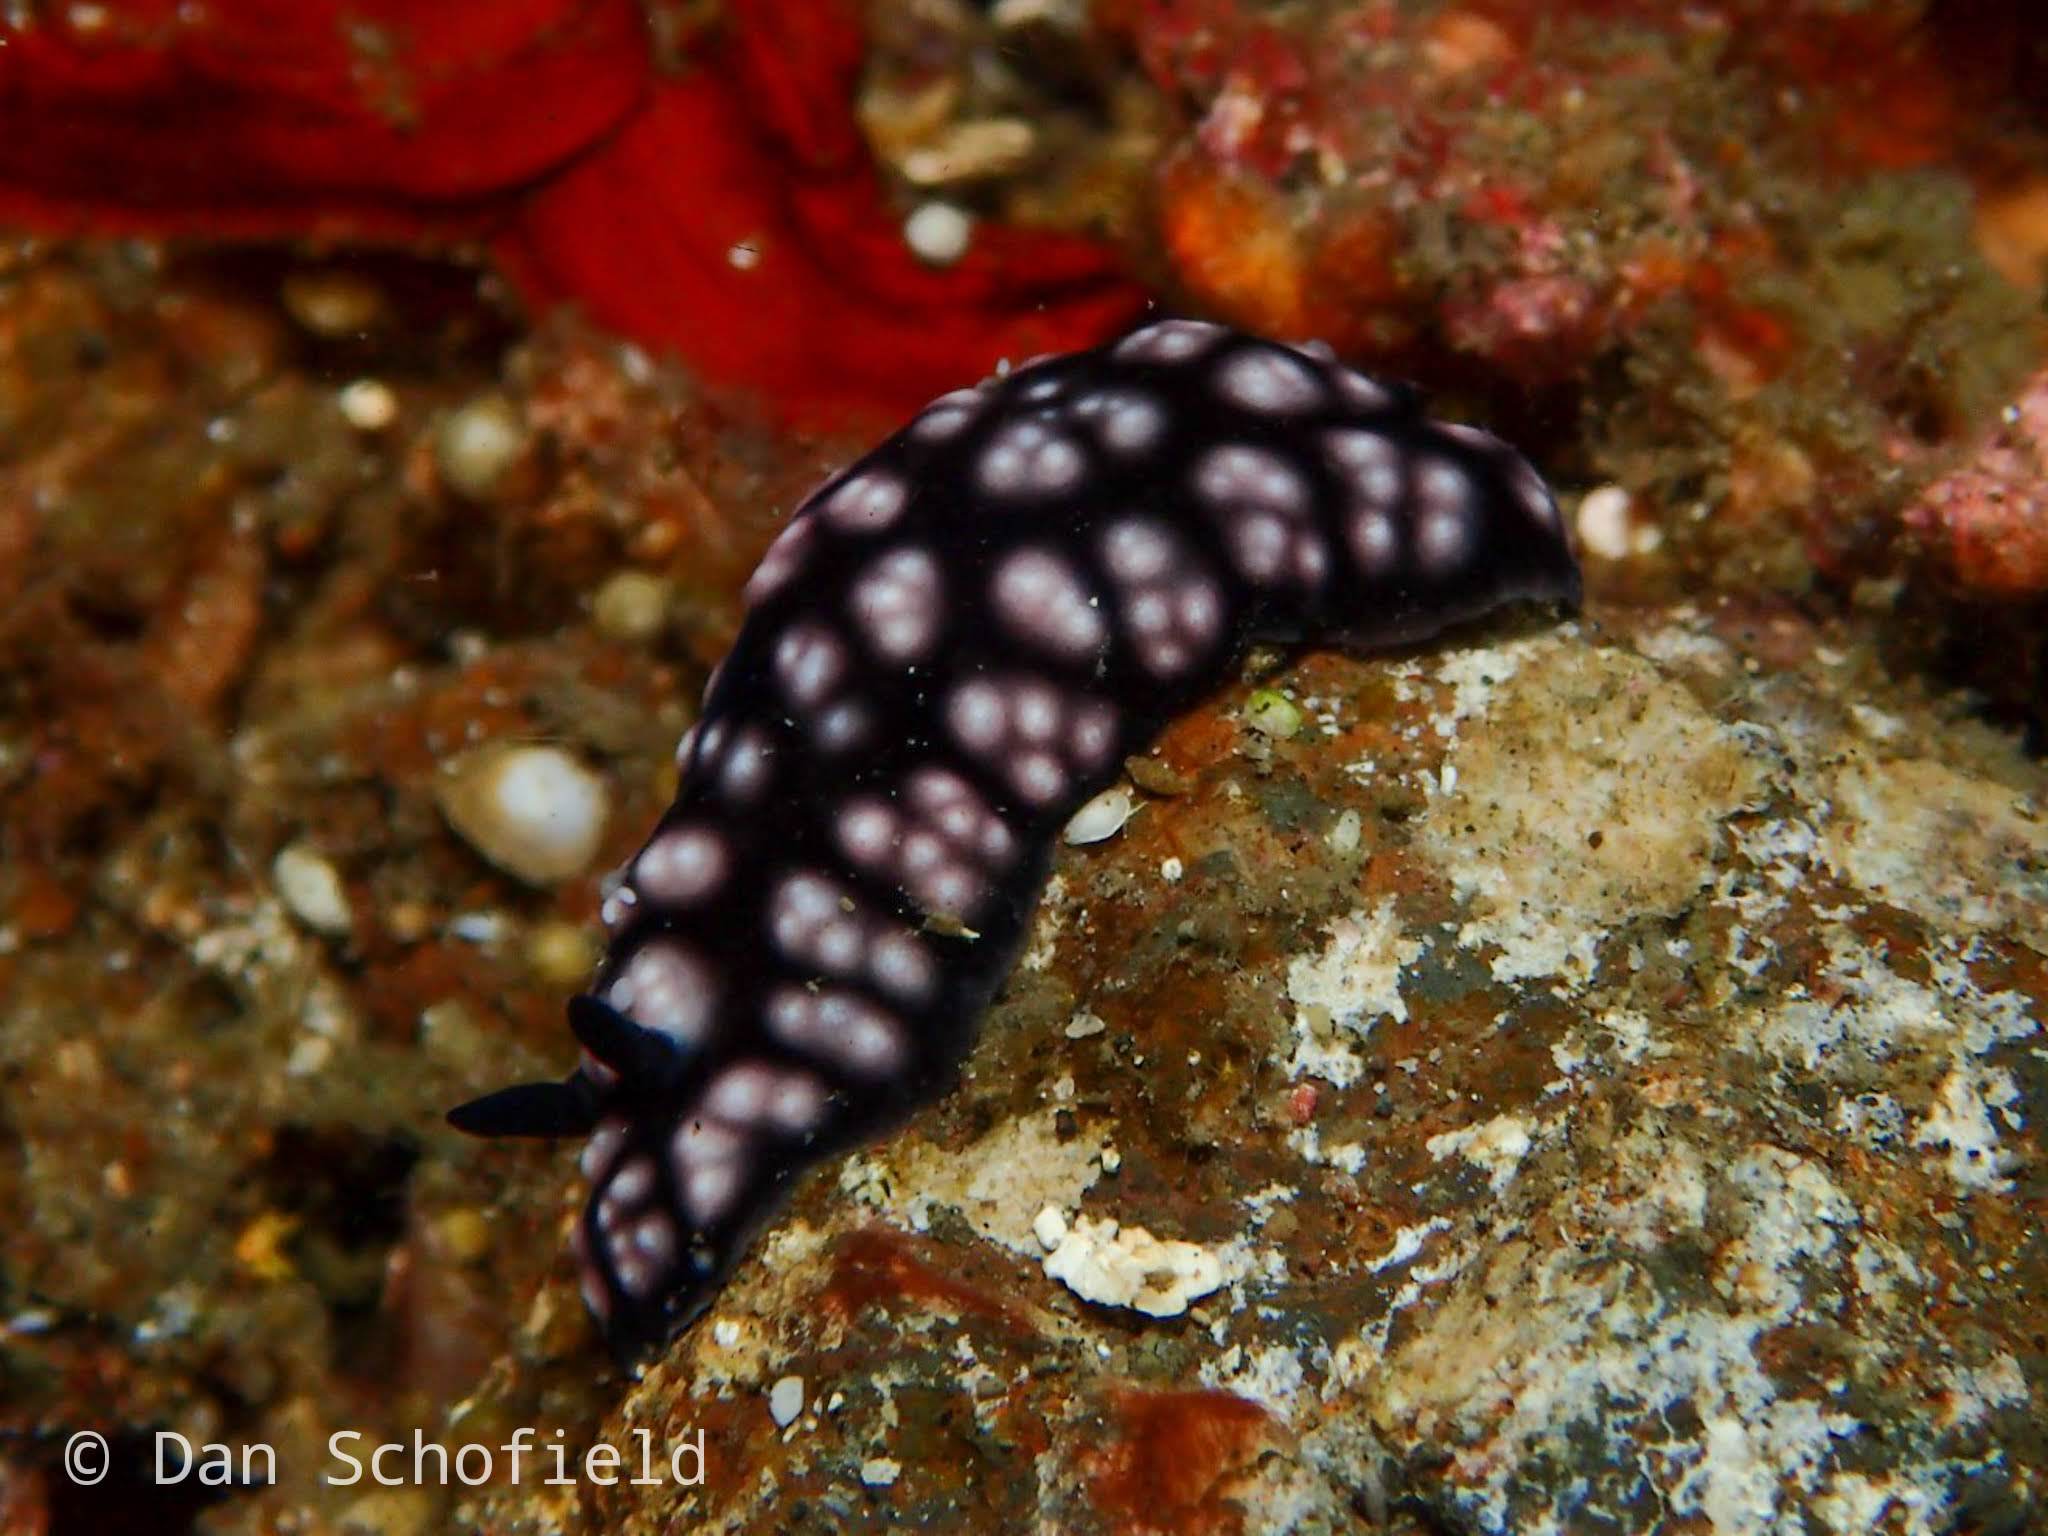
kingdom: Animalia
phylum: Mollusca
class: Gastropoda
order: Nudibranchia
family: Phyllidiidae
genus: Phyllidiella
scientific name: Phyllidiella pustulosa
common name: Pustular phyllidia
